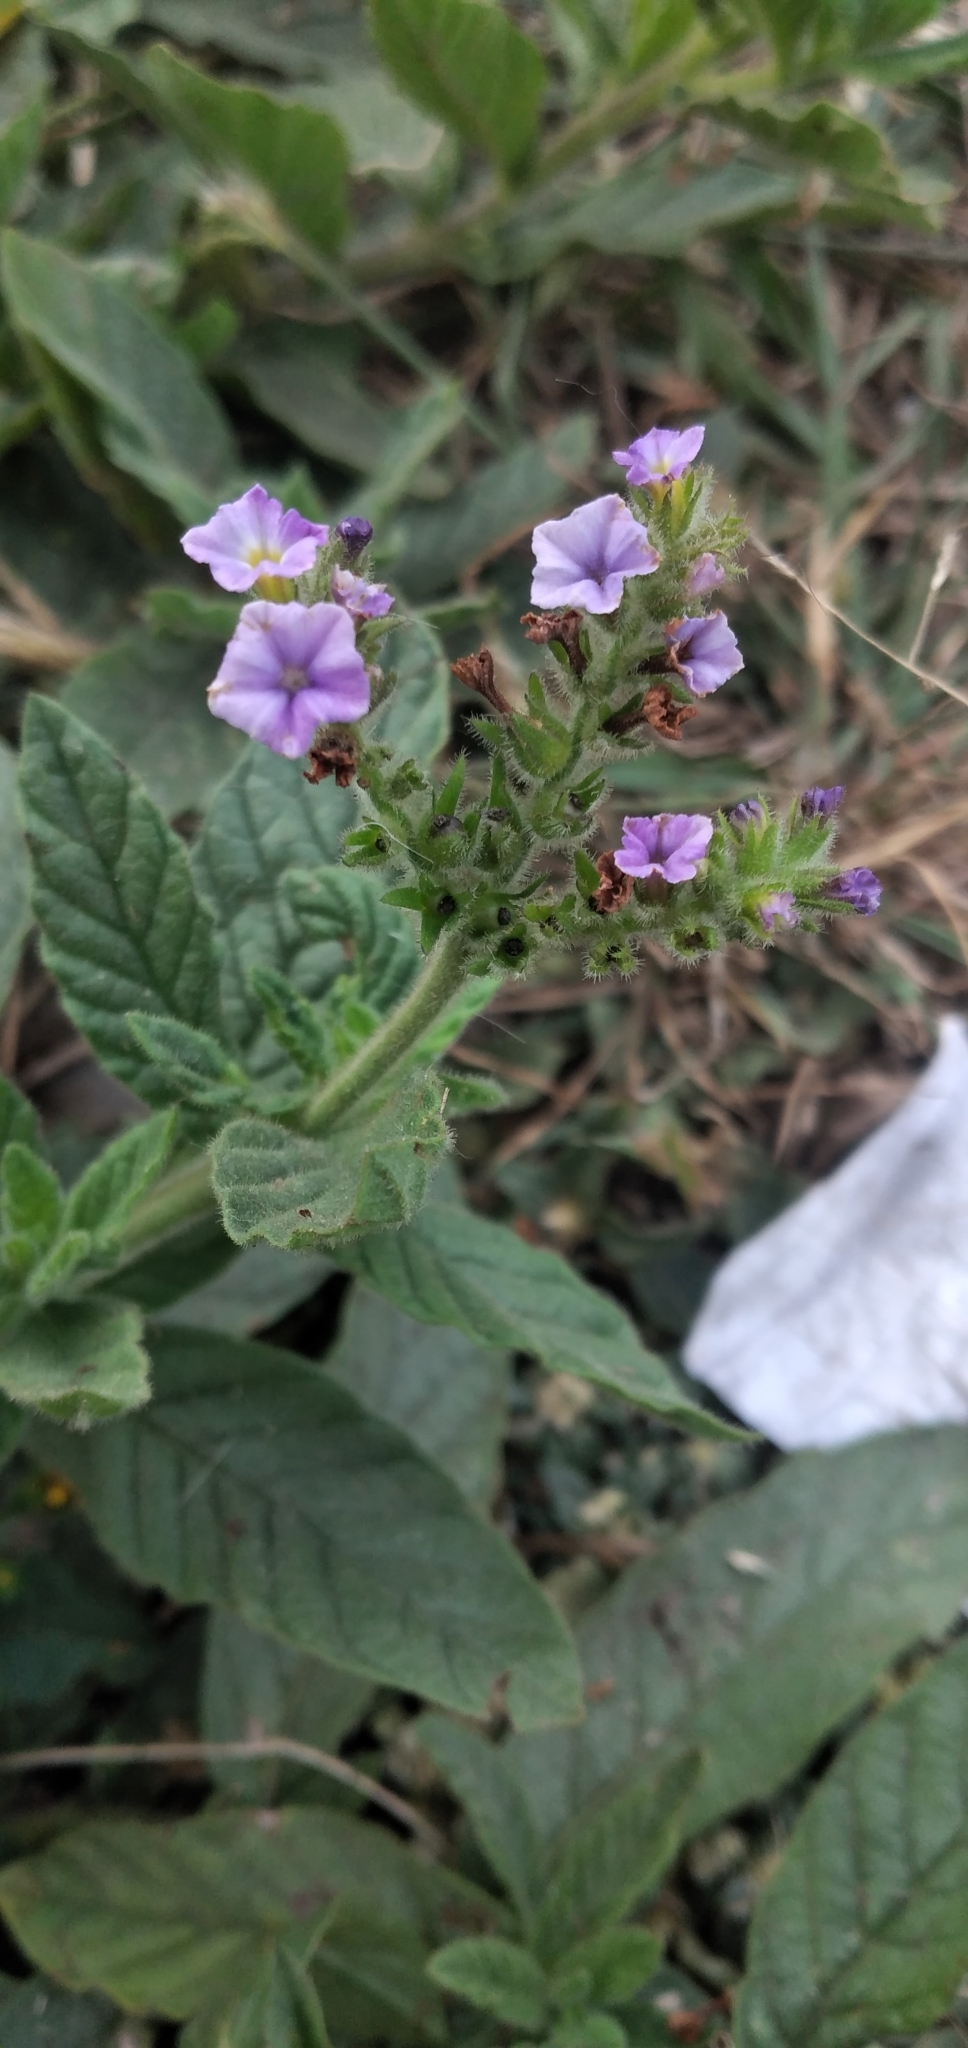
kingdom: Plantae
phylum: Tracheophyta
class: Magnoliopsida
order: Boraginales
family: Heliotropiaceae
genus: Heliotropium
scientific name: Heliotropium amplexicaule
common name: Clasping heliotrope
